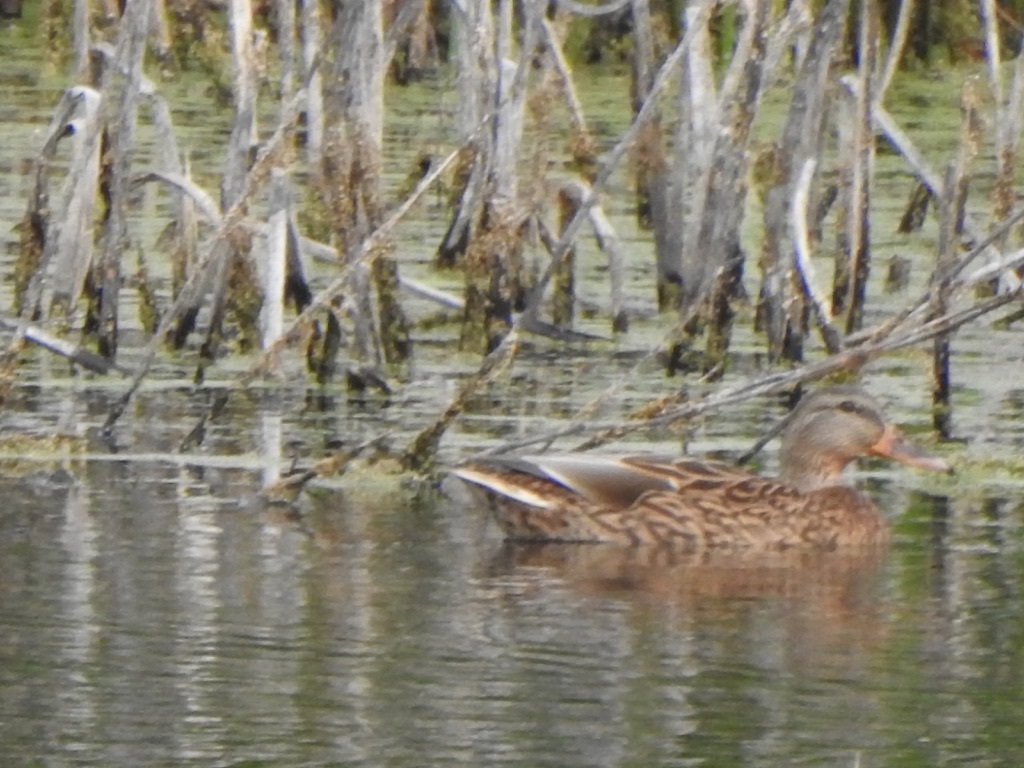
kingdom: Animalia
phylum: Chordata
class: Aves
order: Anseriformes
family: Anatidae
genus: Anas
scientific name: Anas platyrhynchos
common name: Mallard
